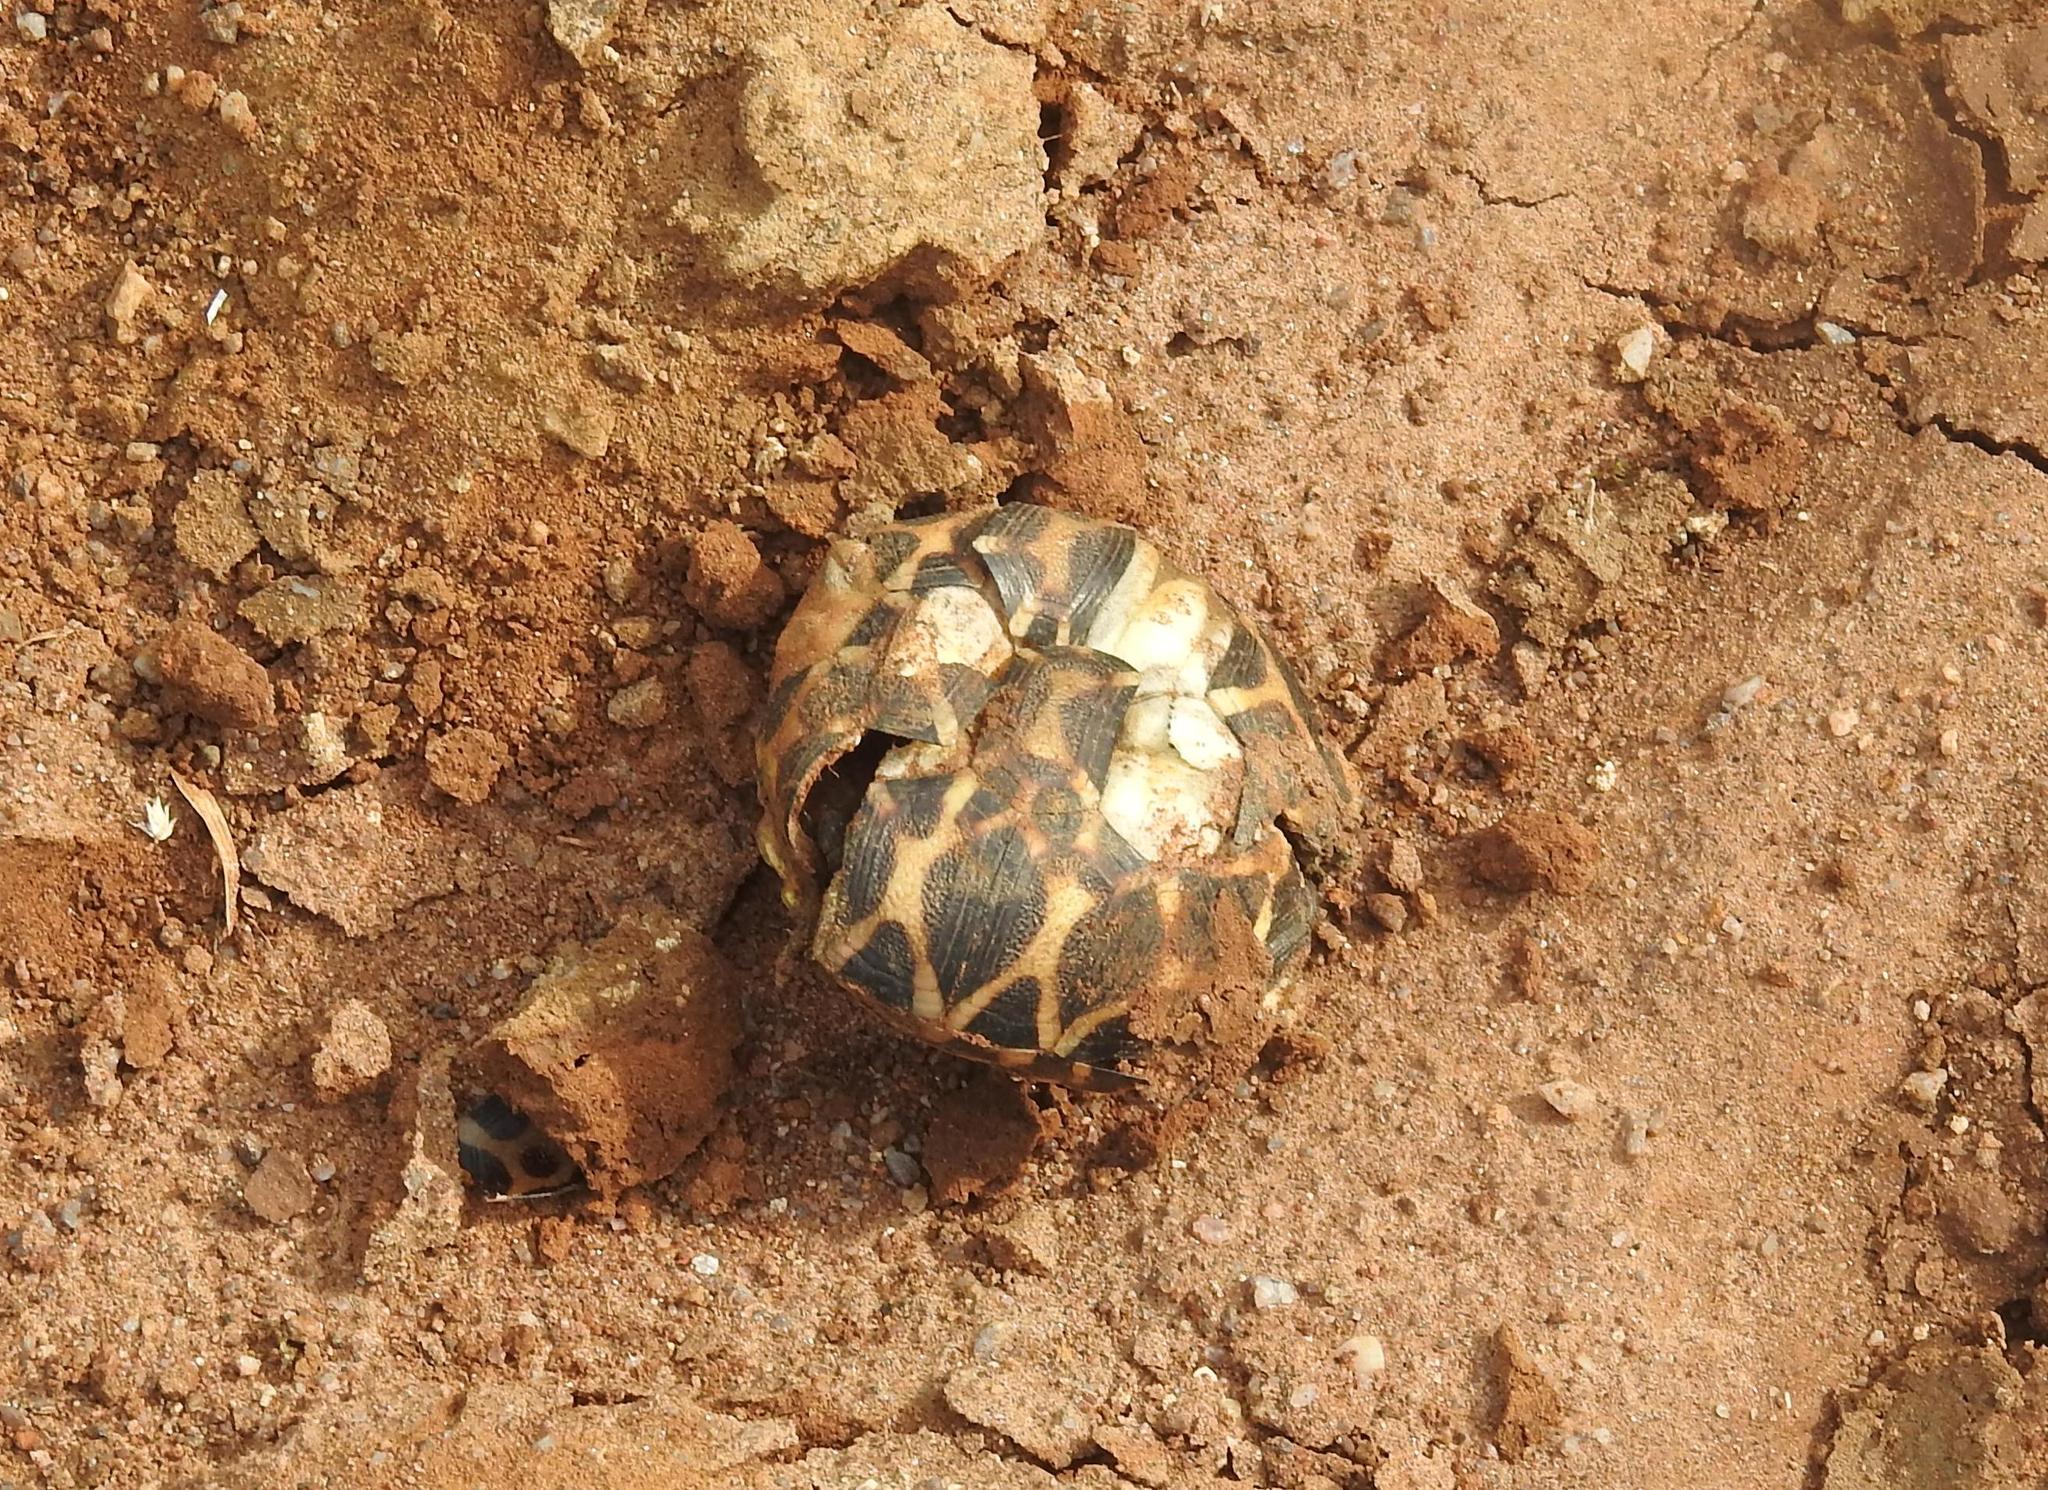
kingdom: Animalia
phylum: Chordata
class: Testudines
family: Testudinidae
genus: Geochelone
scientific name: Geochelone elegans
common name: Indian star tortoise
